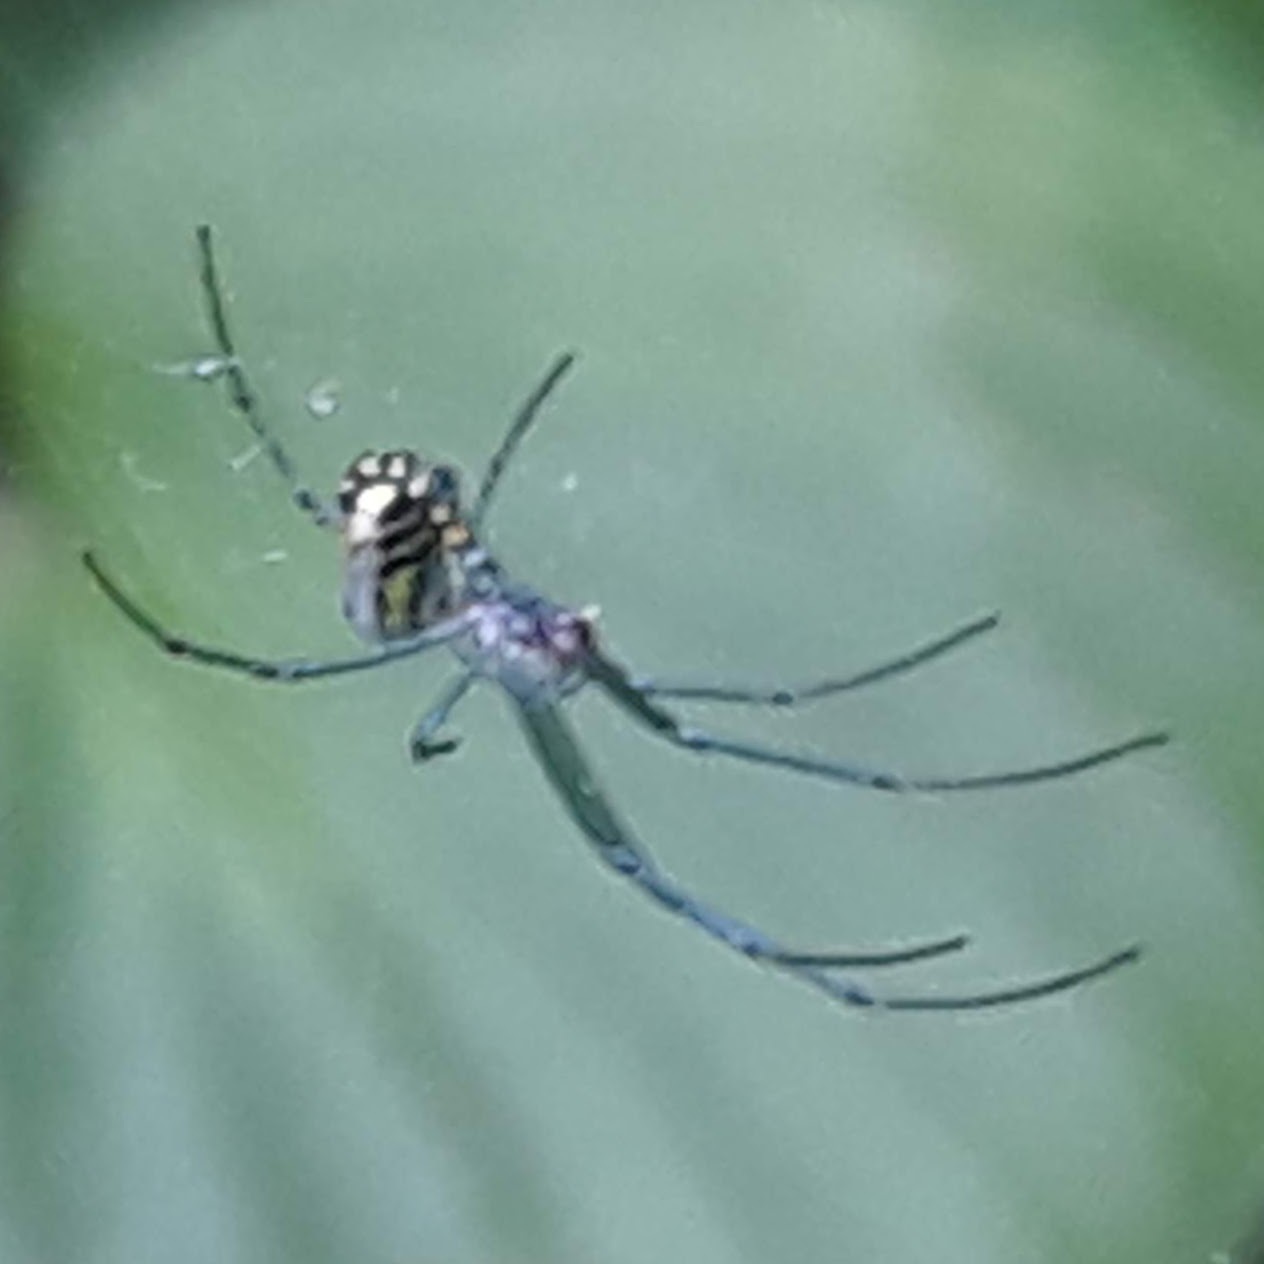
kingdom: Animalia
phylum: Arthropoda
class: Arachnida
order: Araneae
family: Tetragnathidae
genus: Leucauge
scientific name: Leucauge venusta
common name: Longjawed orb weavers
